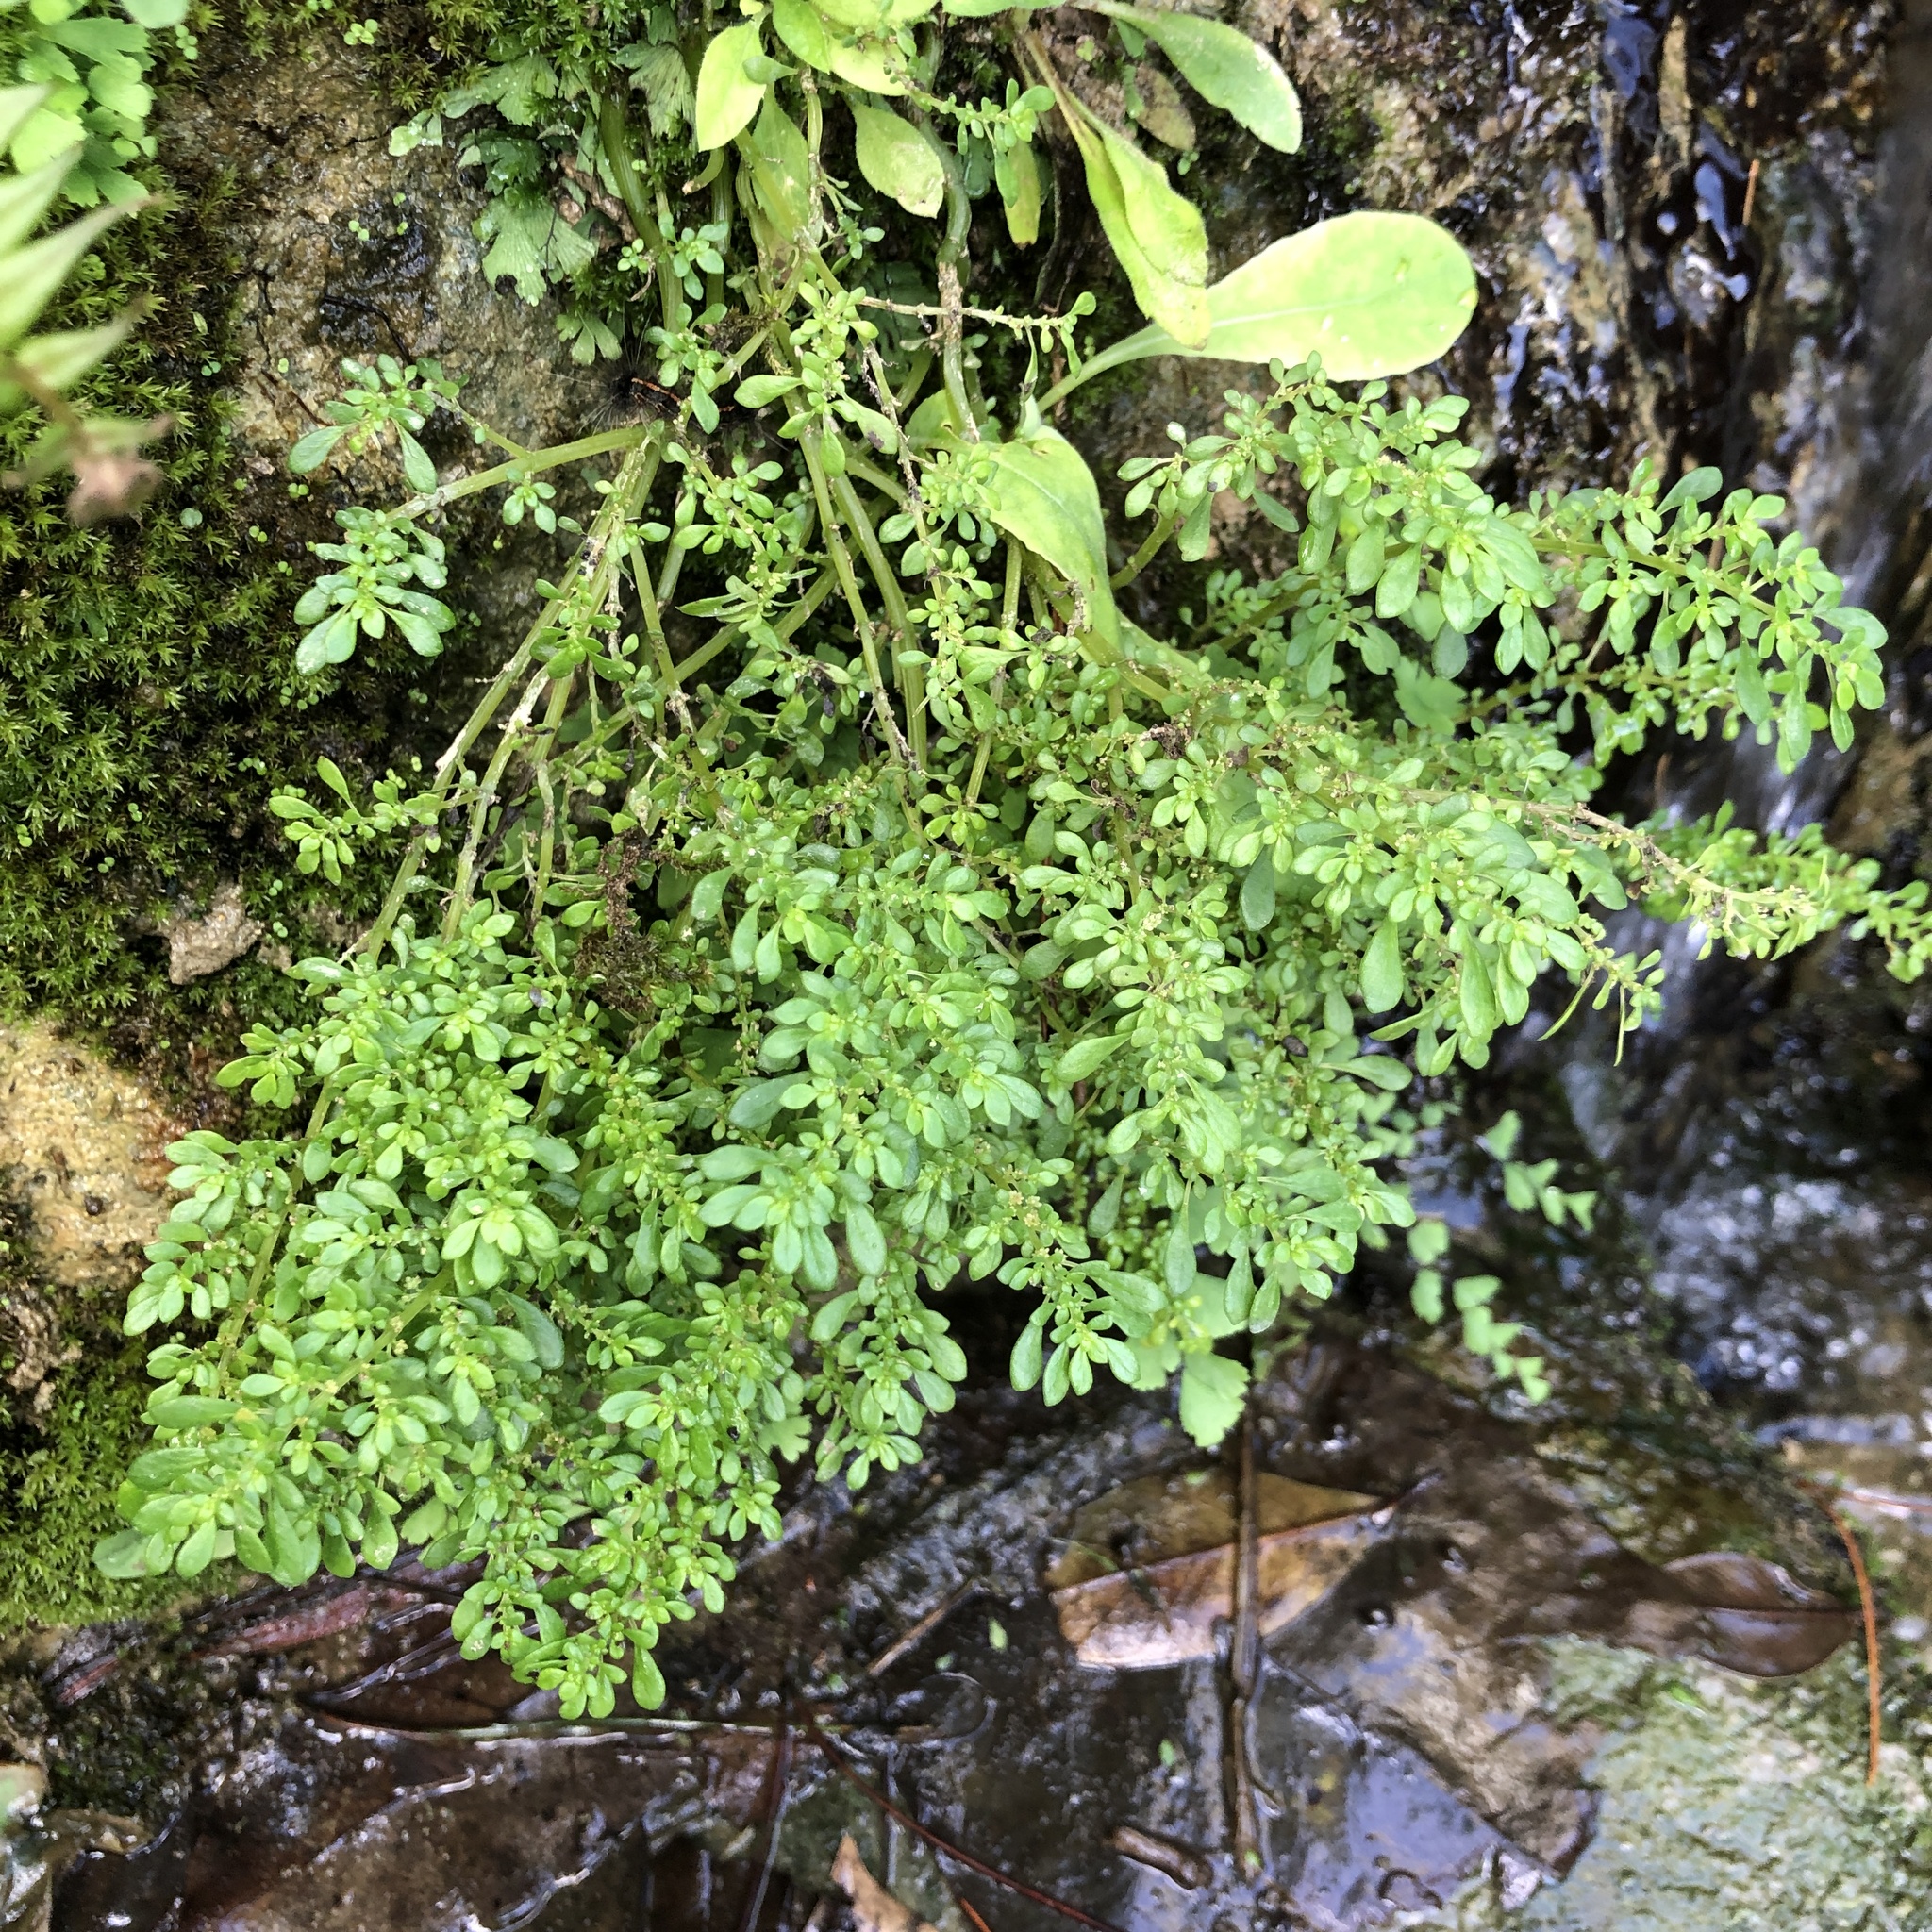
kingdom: Plantae
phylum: Tracheophyta
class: Magnoliopsida
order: Rosales
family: Urticaceae
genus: Pilea
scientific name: Pilea microphylla
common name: Artillery-plant
